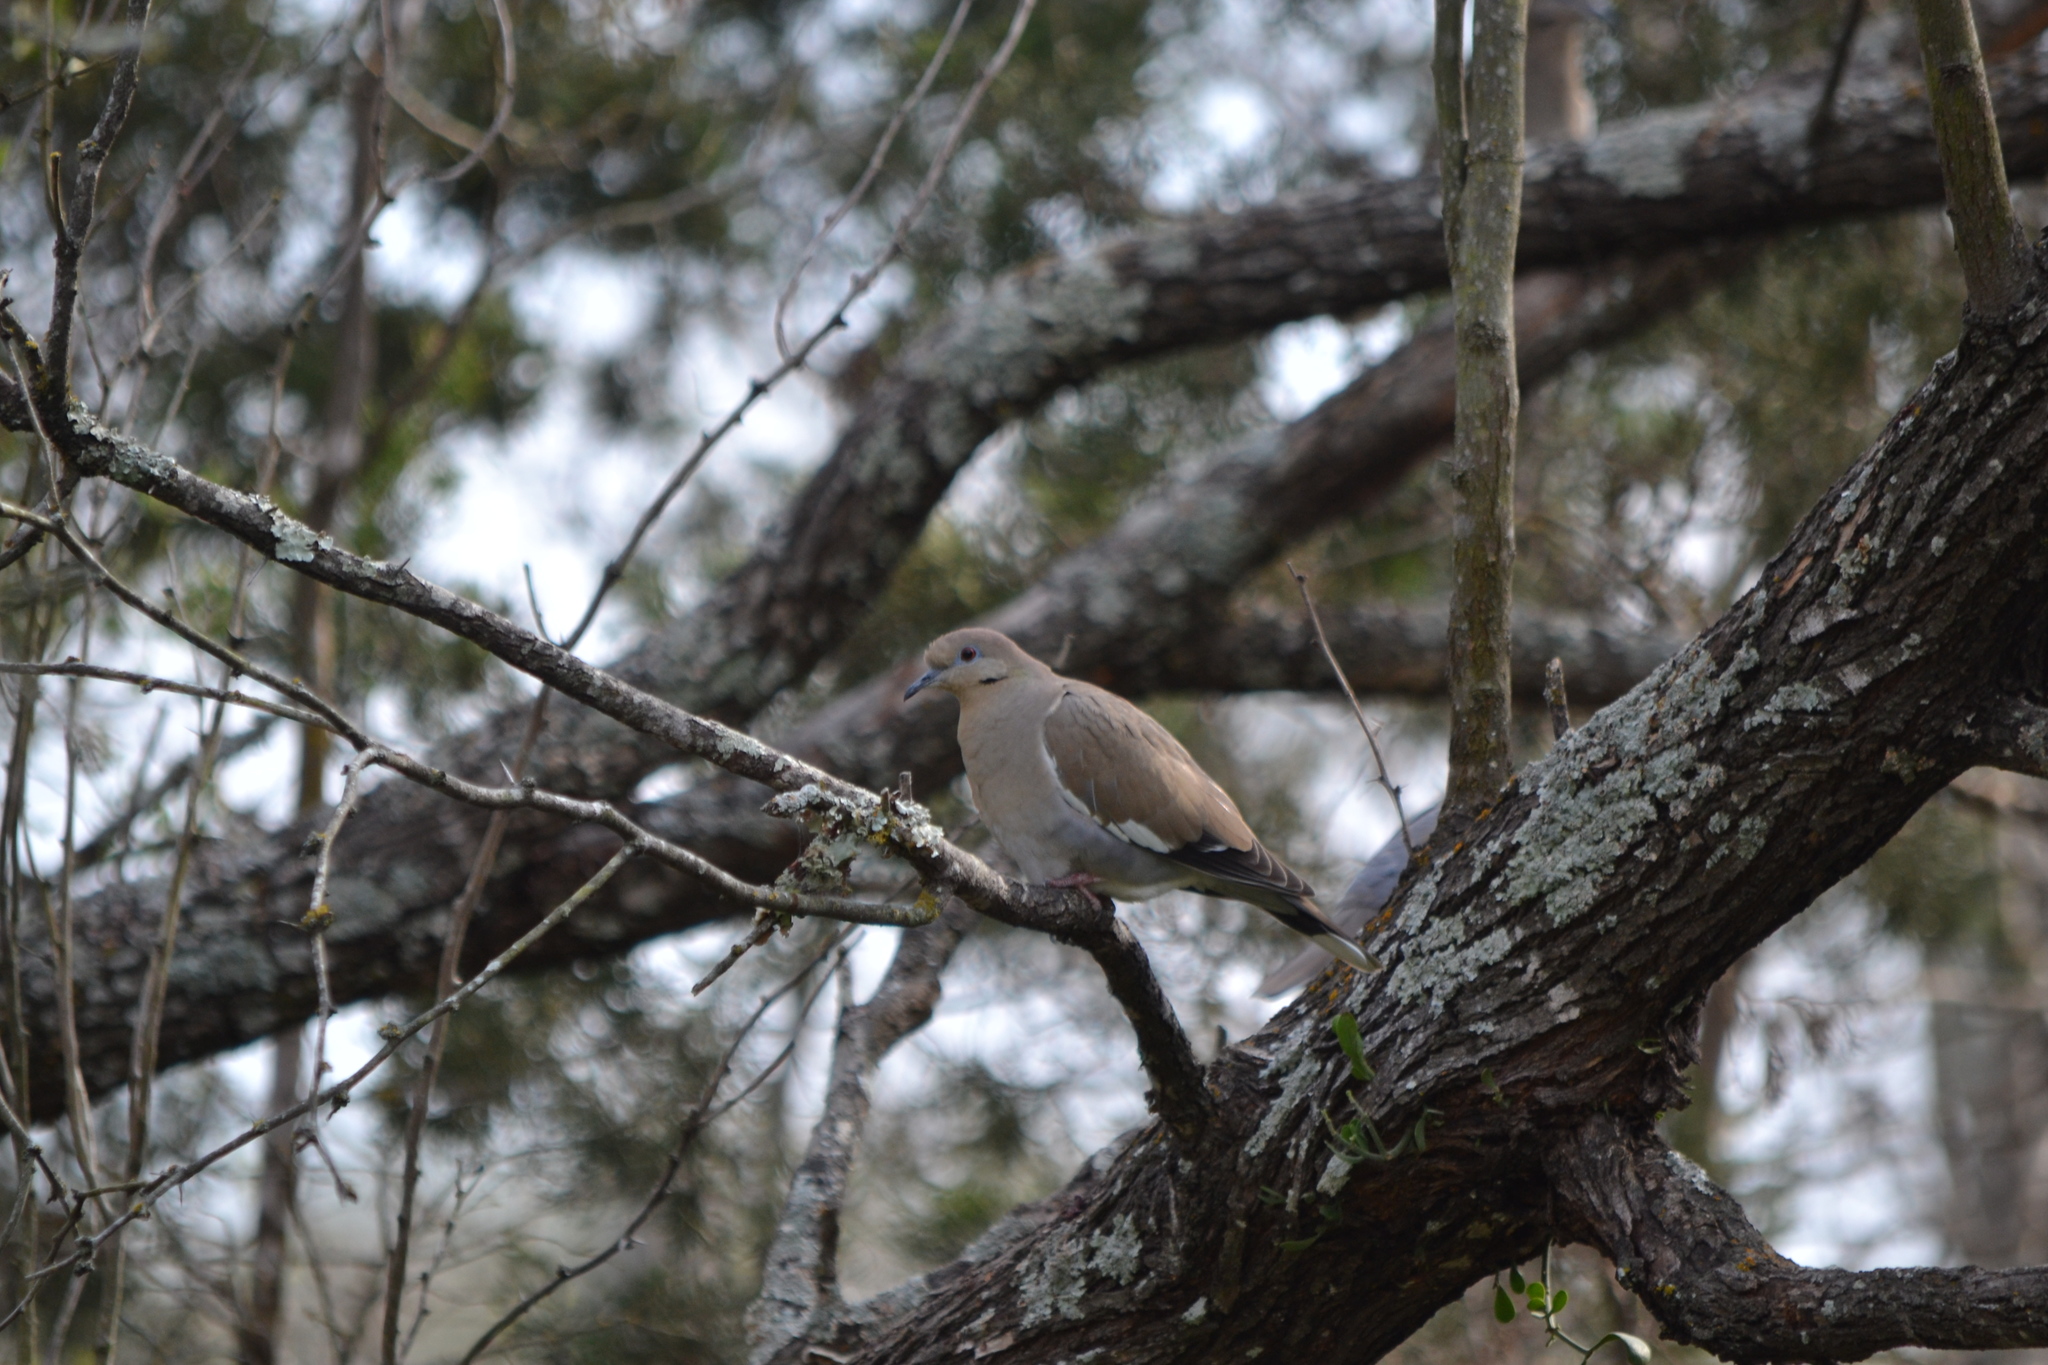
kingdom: Animalia
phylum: Chordata
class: Aves
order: Columbiformes
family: Columbidae
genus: Zenaida
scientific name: Zenaida asiatica
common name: White-winged dove
